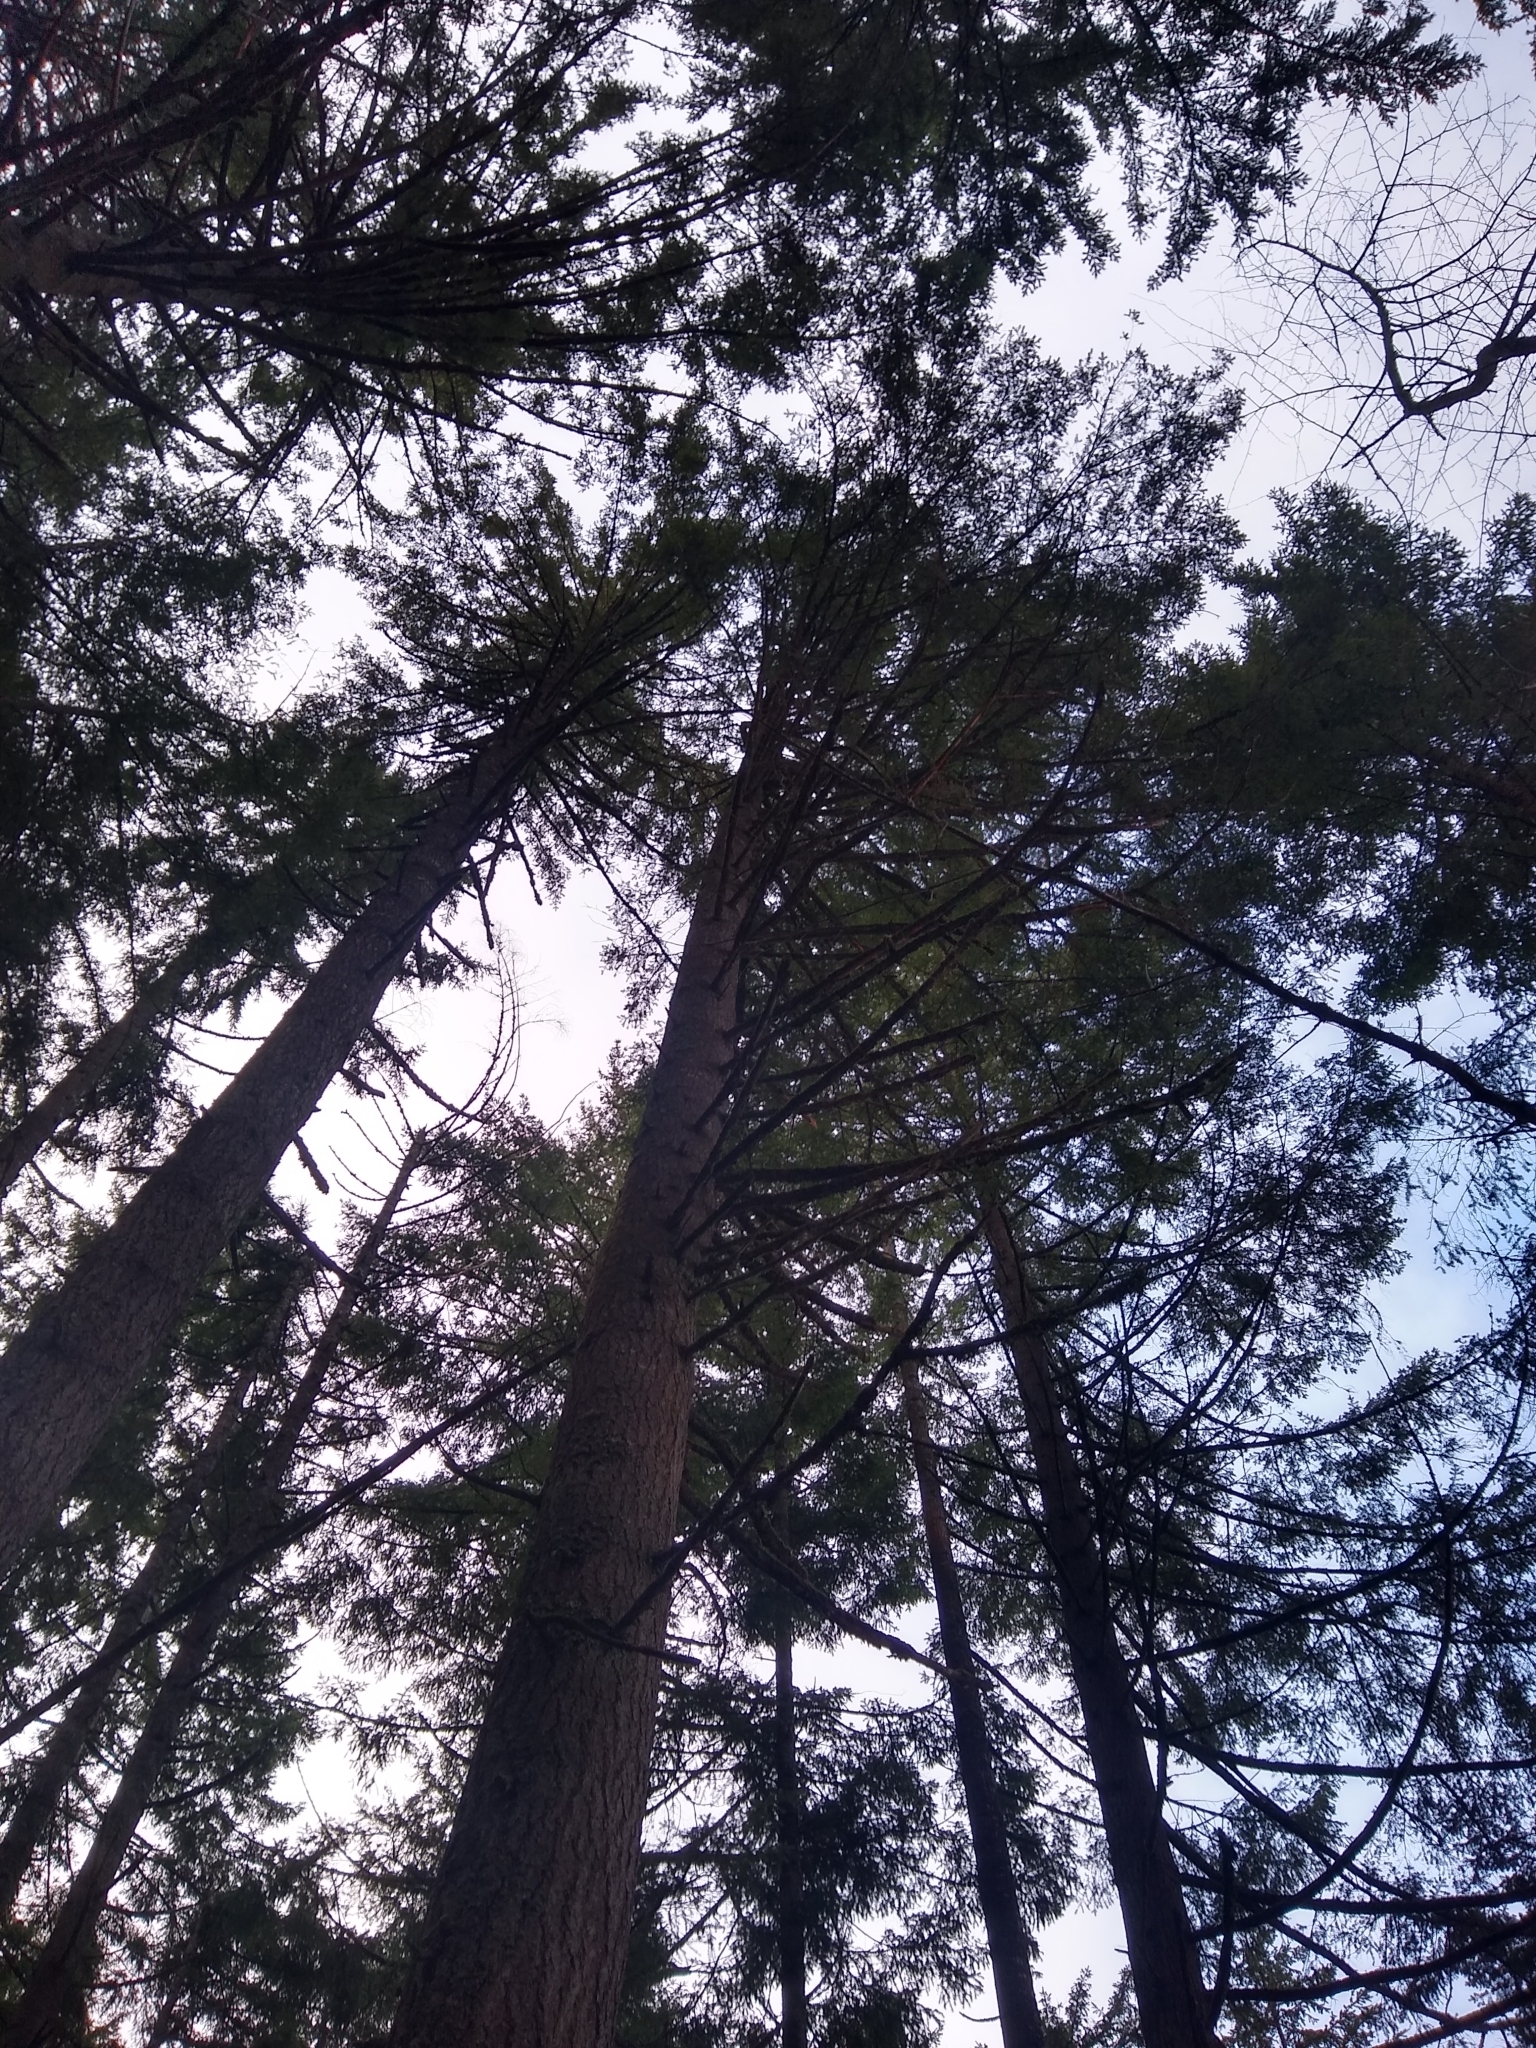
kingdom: Plantae
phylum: Tracheophyta
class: Pinopsida
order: Pinales
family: Pinaceae
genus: Pseudotsuga
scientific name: Pseudotsuga menziesii
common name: Douglas fir
